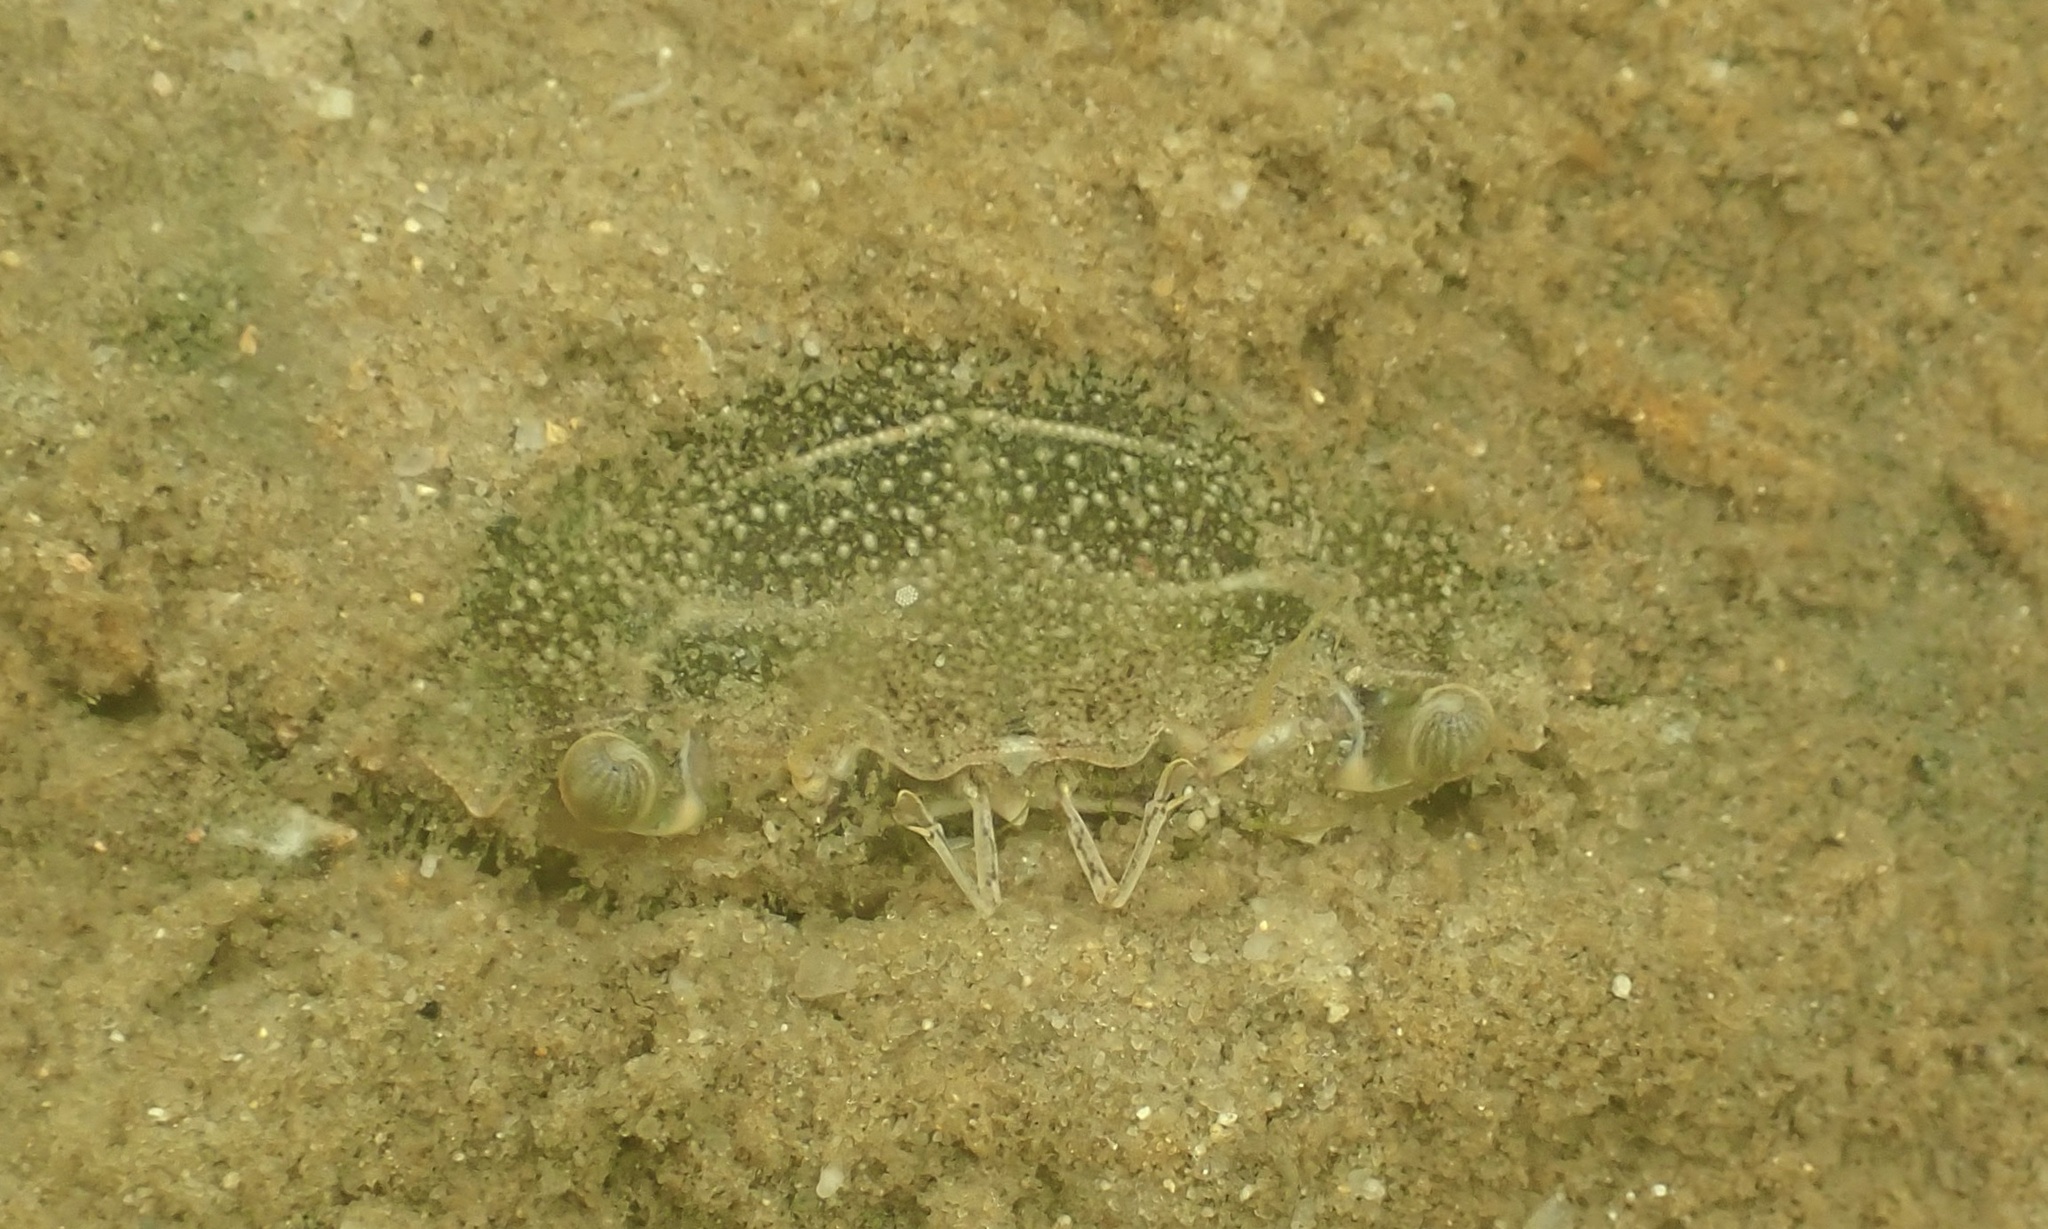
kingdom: Animalia
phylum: Arthropoda
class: Malacostraca
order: Decapoda
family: Portunidae
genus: Callinectes
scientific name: Callinectes sapidus
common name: Blue crab
